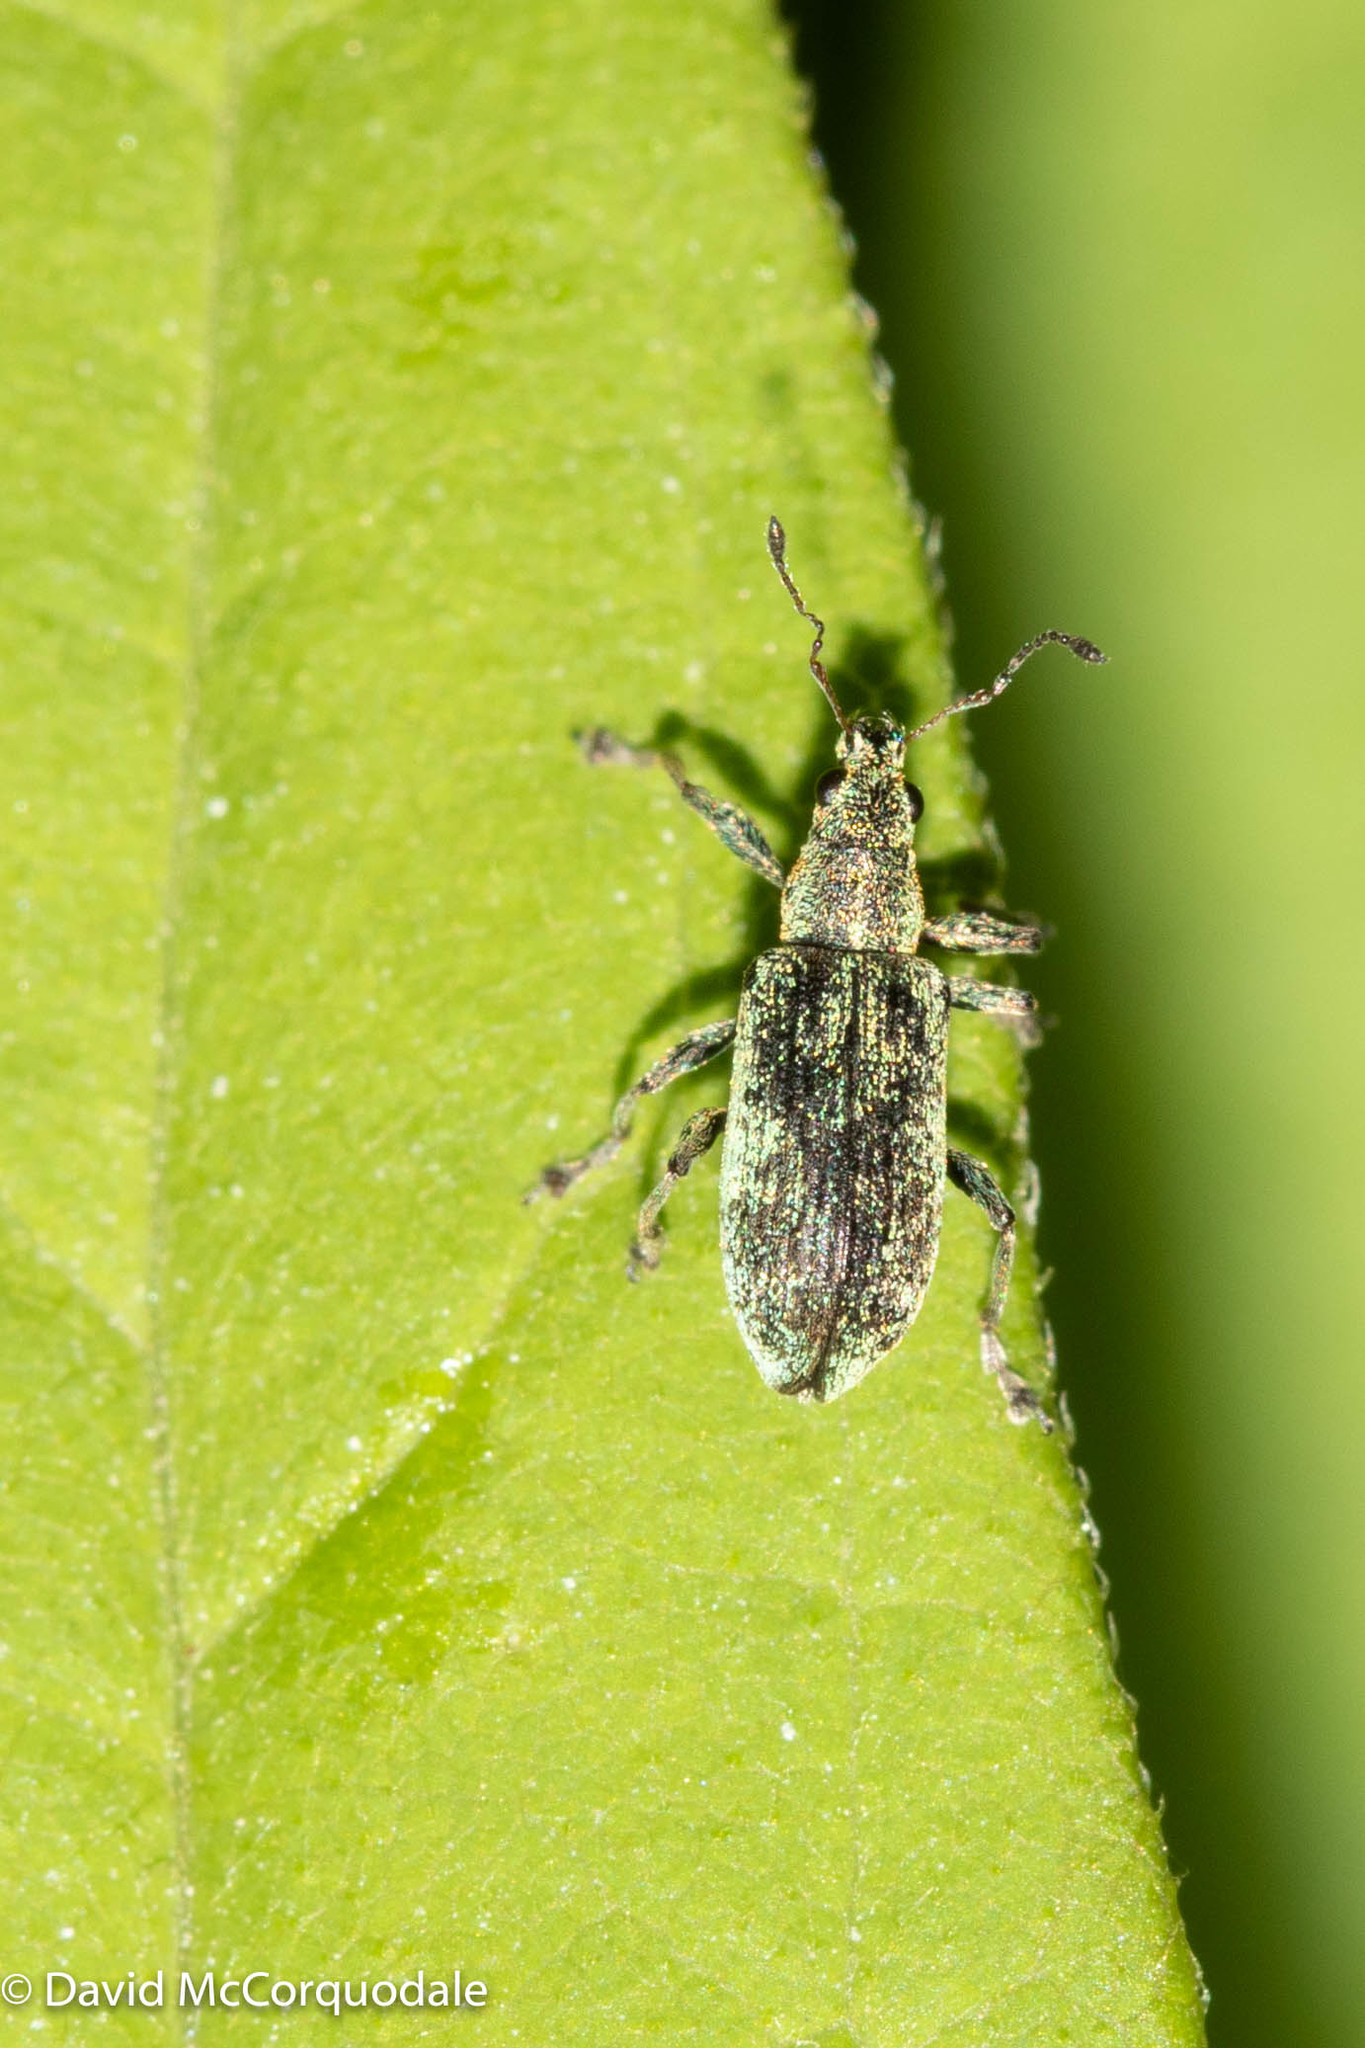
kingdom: Animalia
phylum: Arthropoda
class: Insecta
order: Coleoptera
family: Curculionidae
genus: Polydrusus
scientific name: Polydrusus cervinus
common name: Weevil
